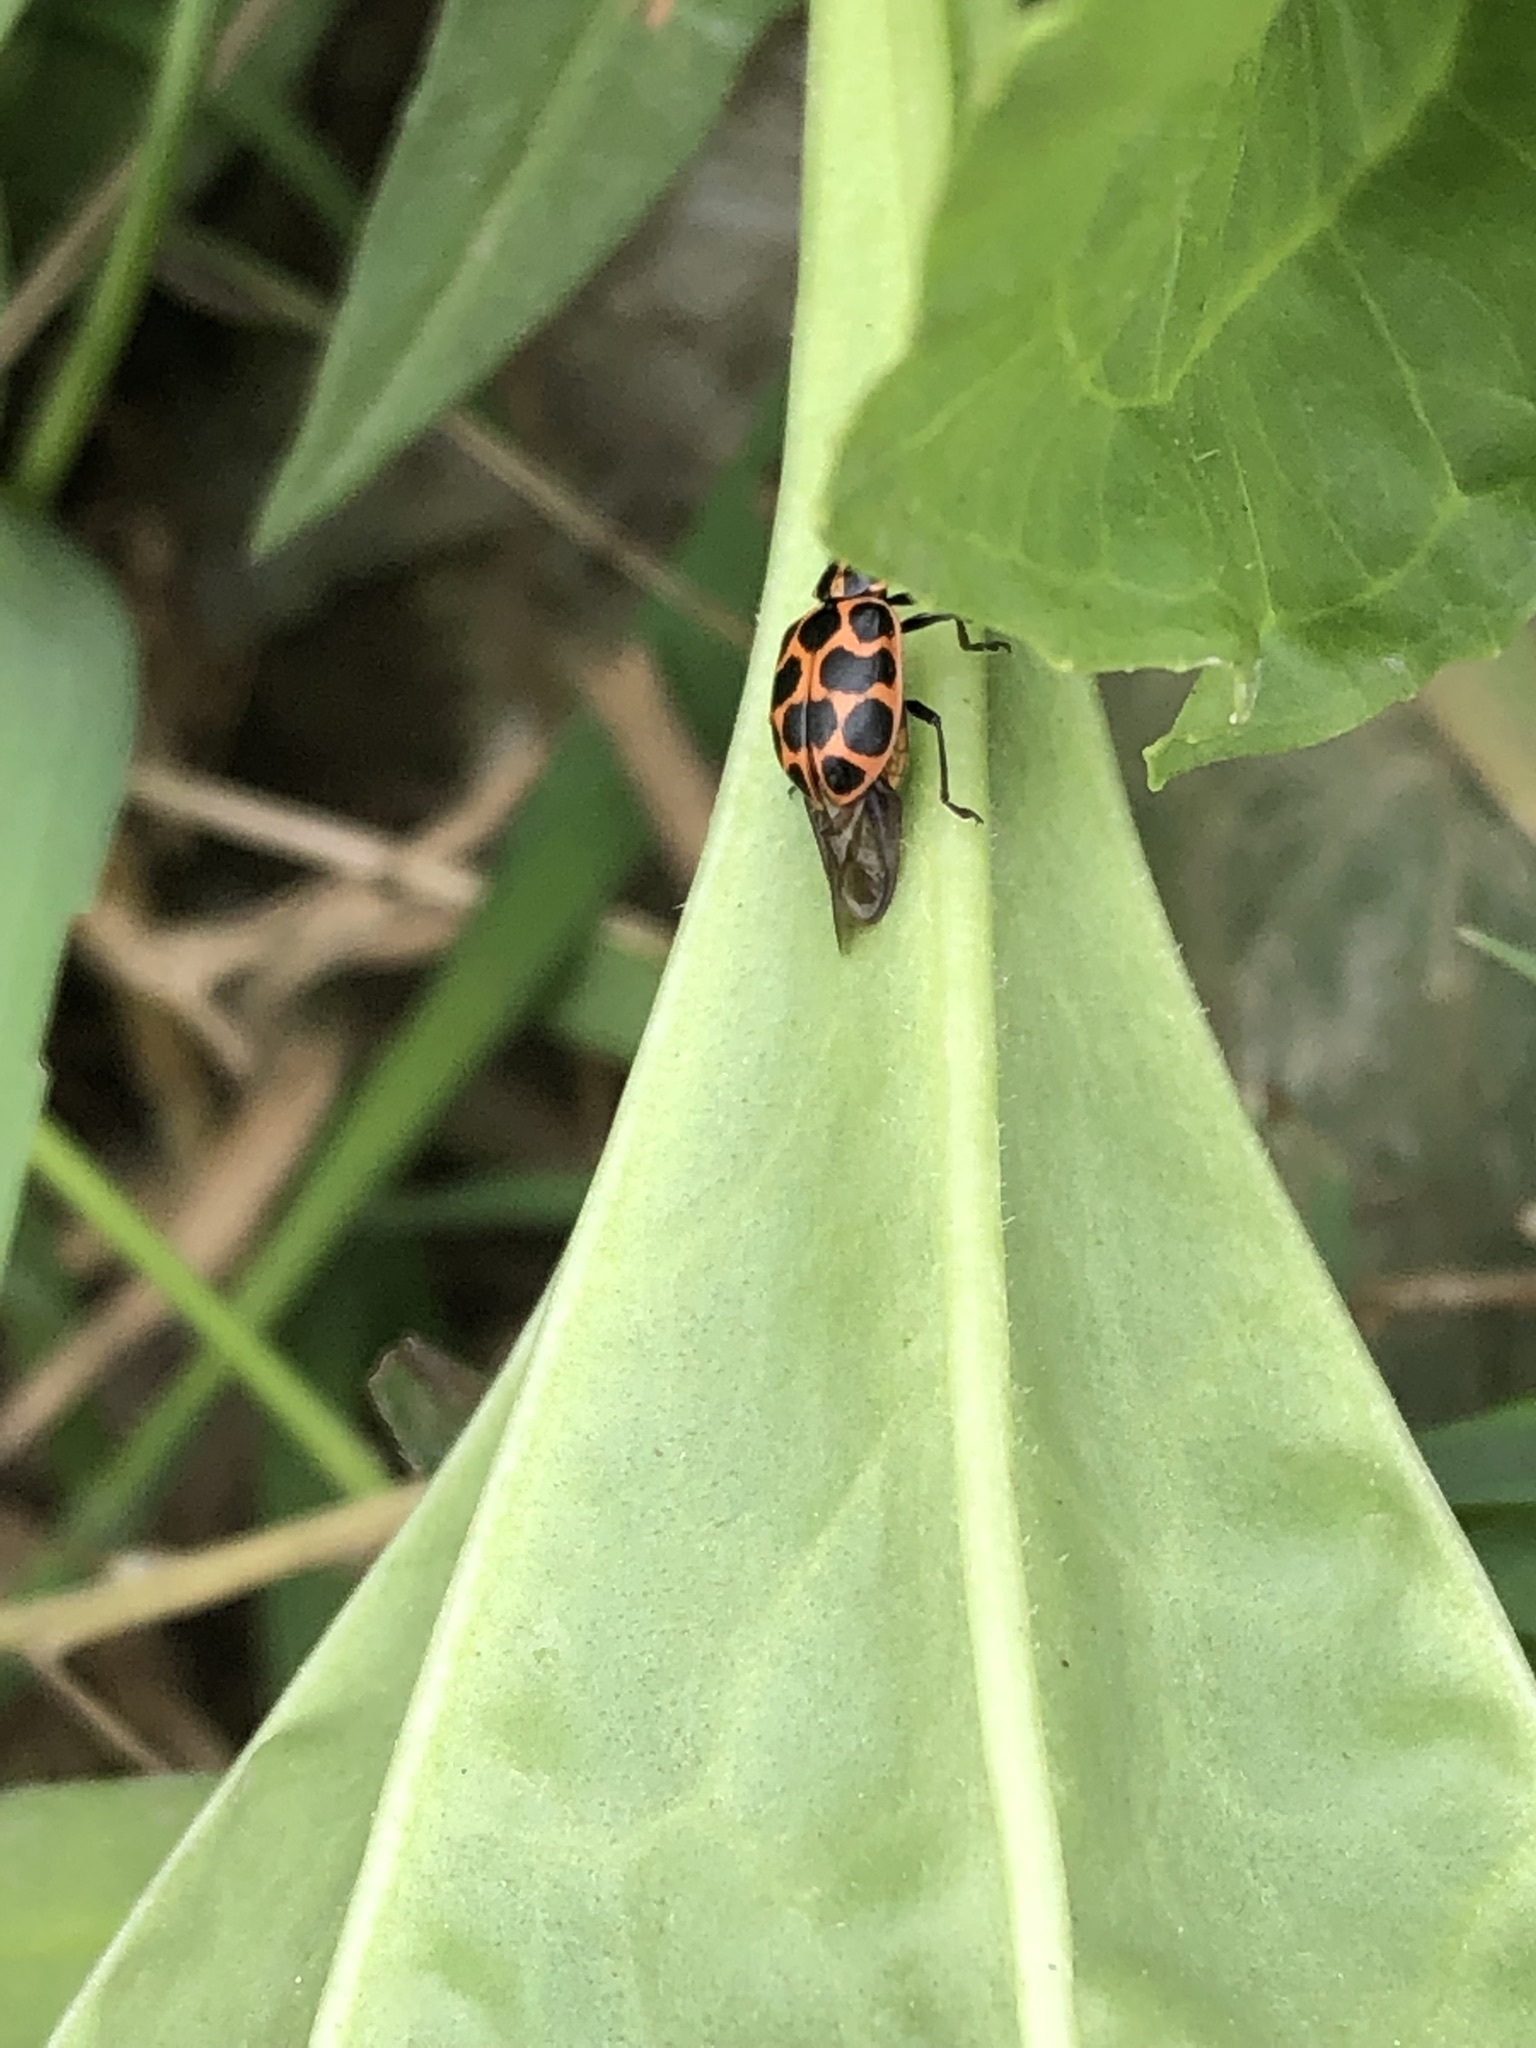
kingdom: Animalia
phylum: Arthropoda
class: Insecta
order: Coleoptera
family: Coccinellidae
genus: Coleomegilla
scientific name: Coleomegilla maculata
